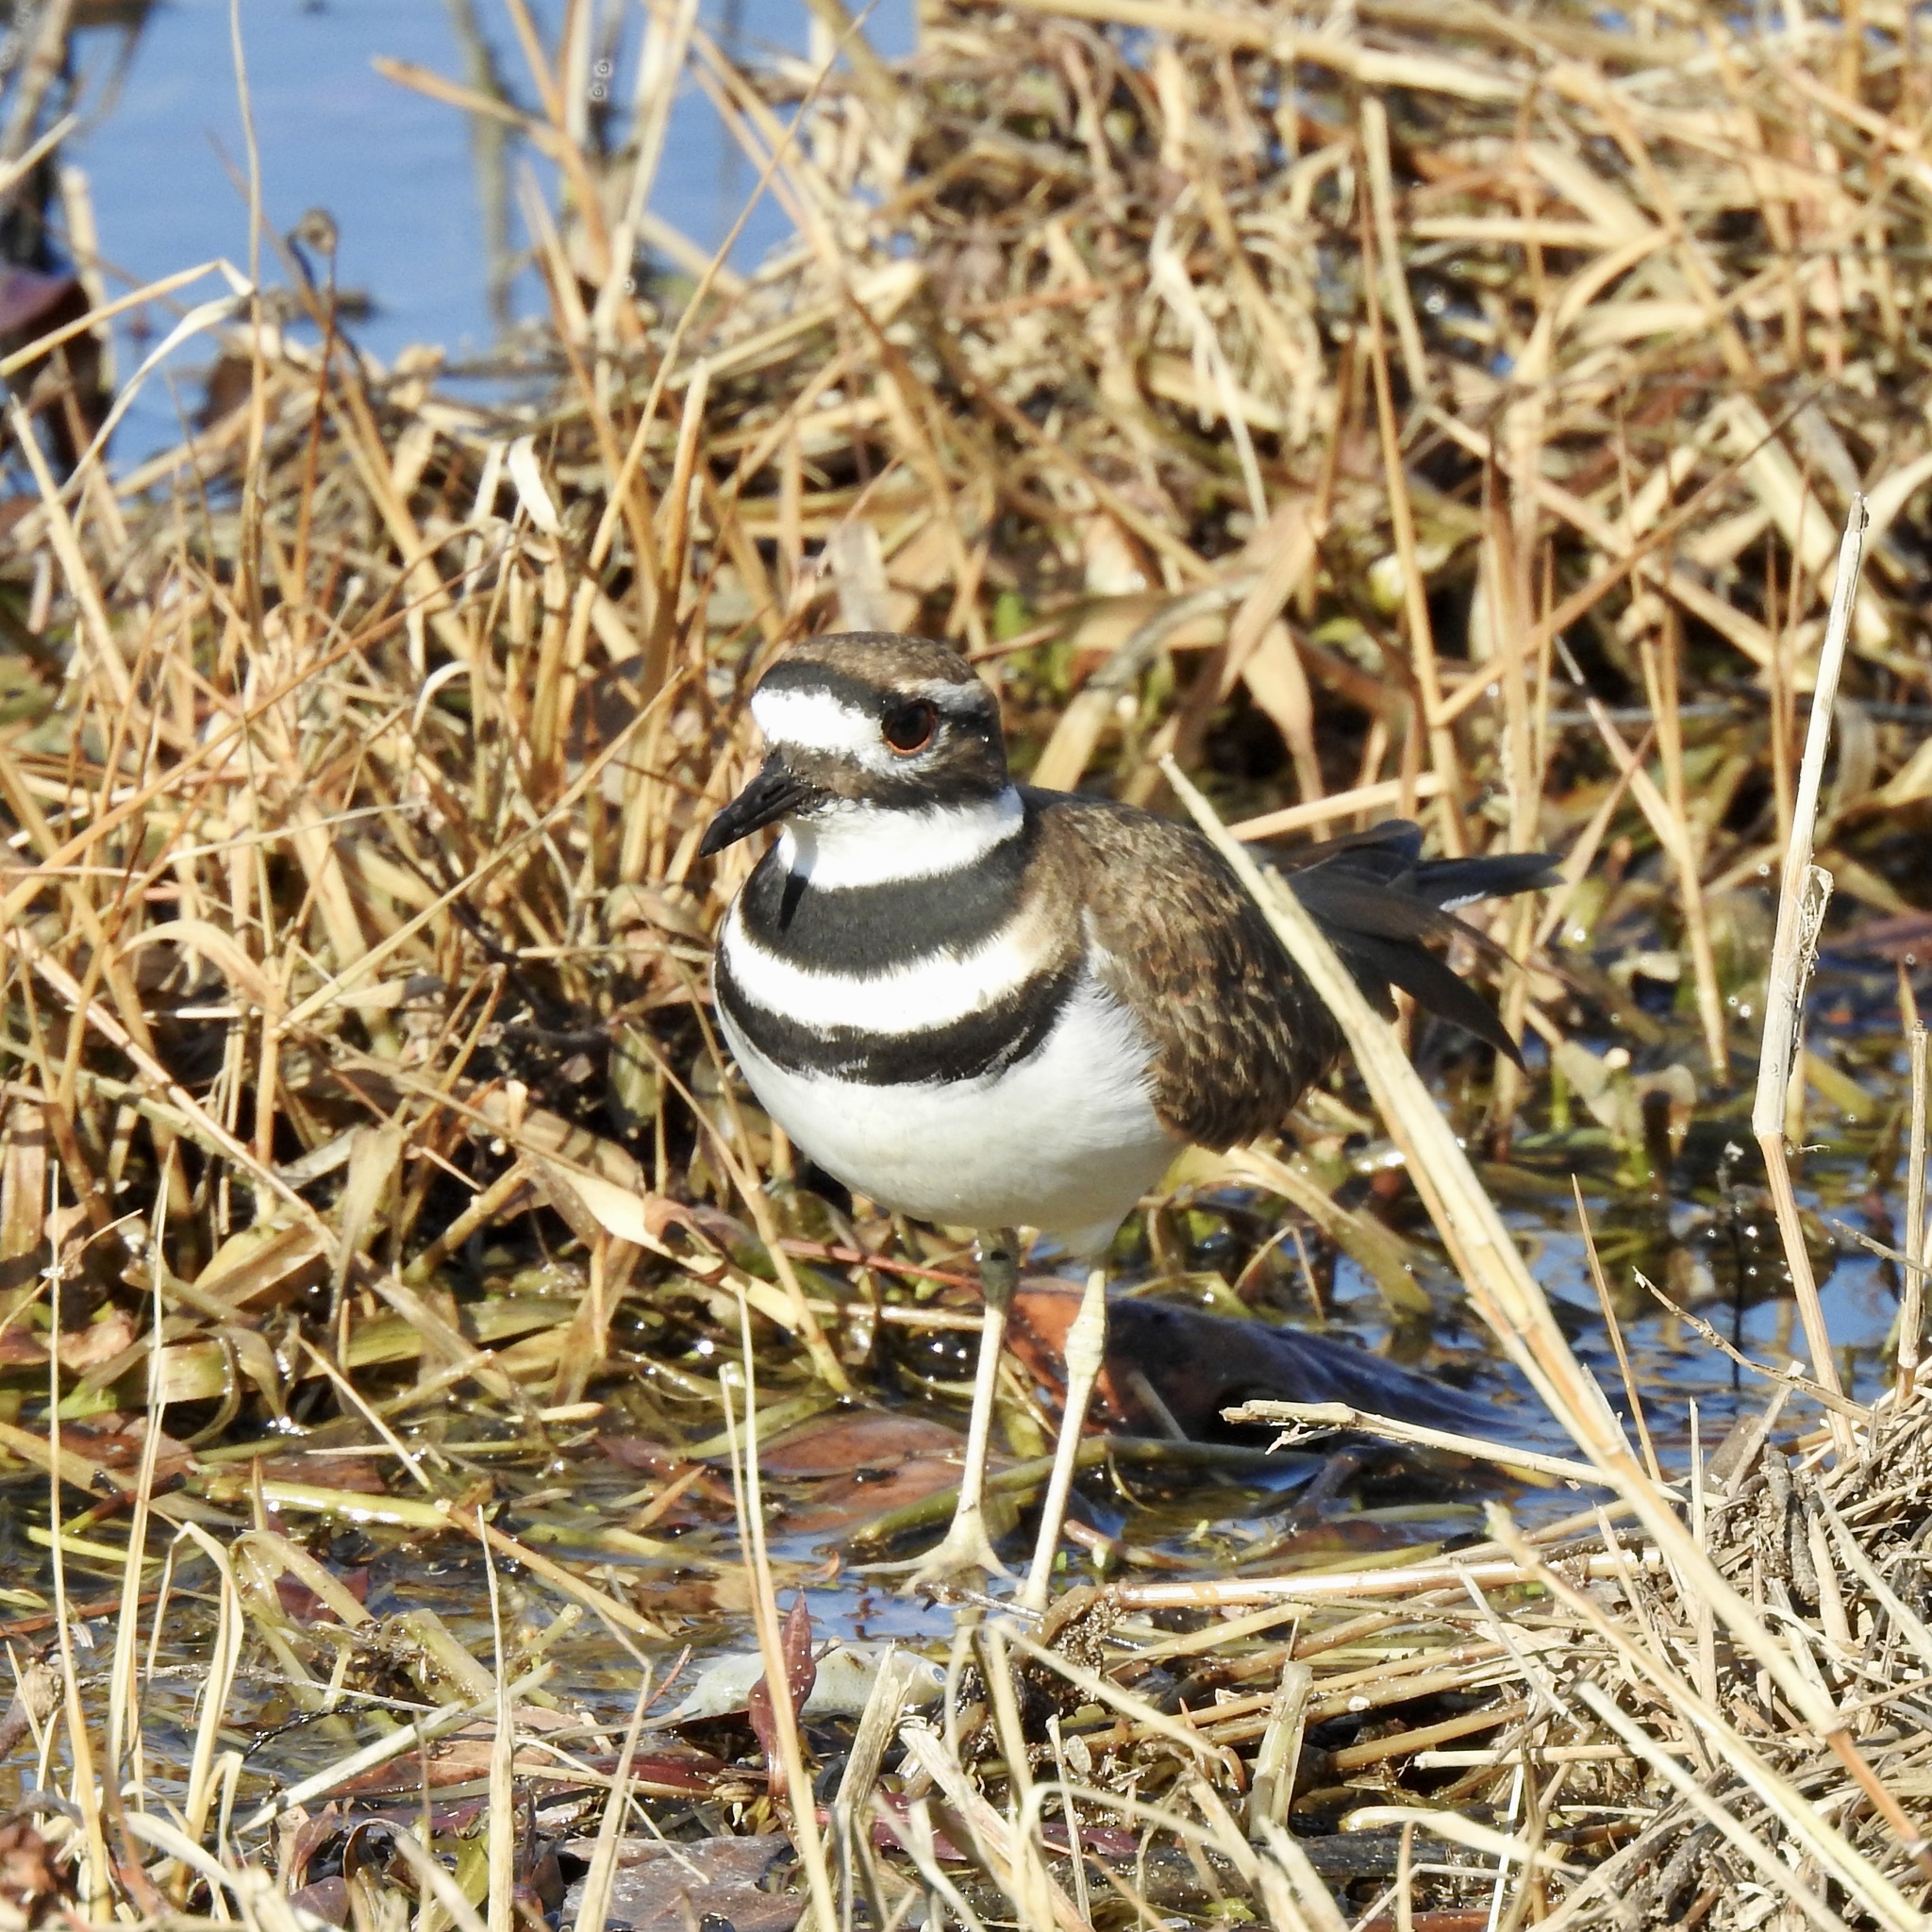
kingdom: Animalia
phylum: Chordata
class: Aves
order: Charadriiformes
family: Charadriidae
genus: Charadrius
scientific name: Charadrius vociferus
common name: Killdeer
